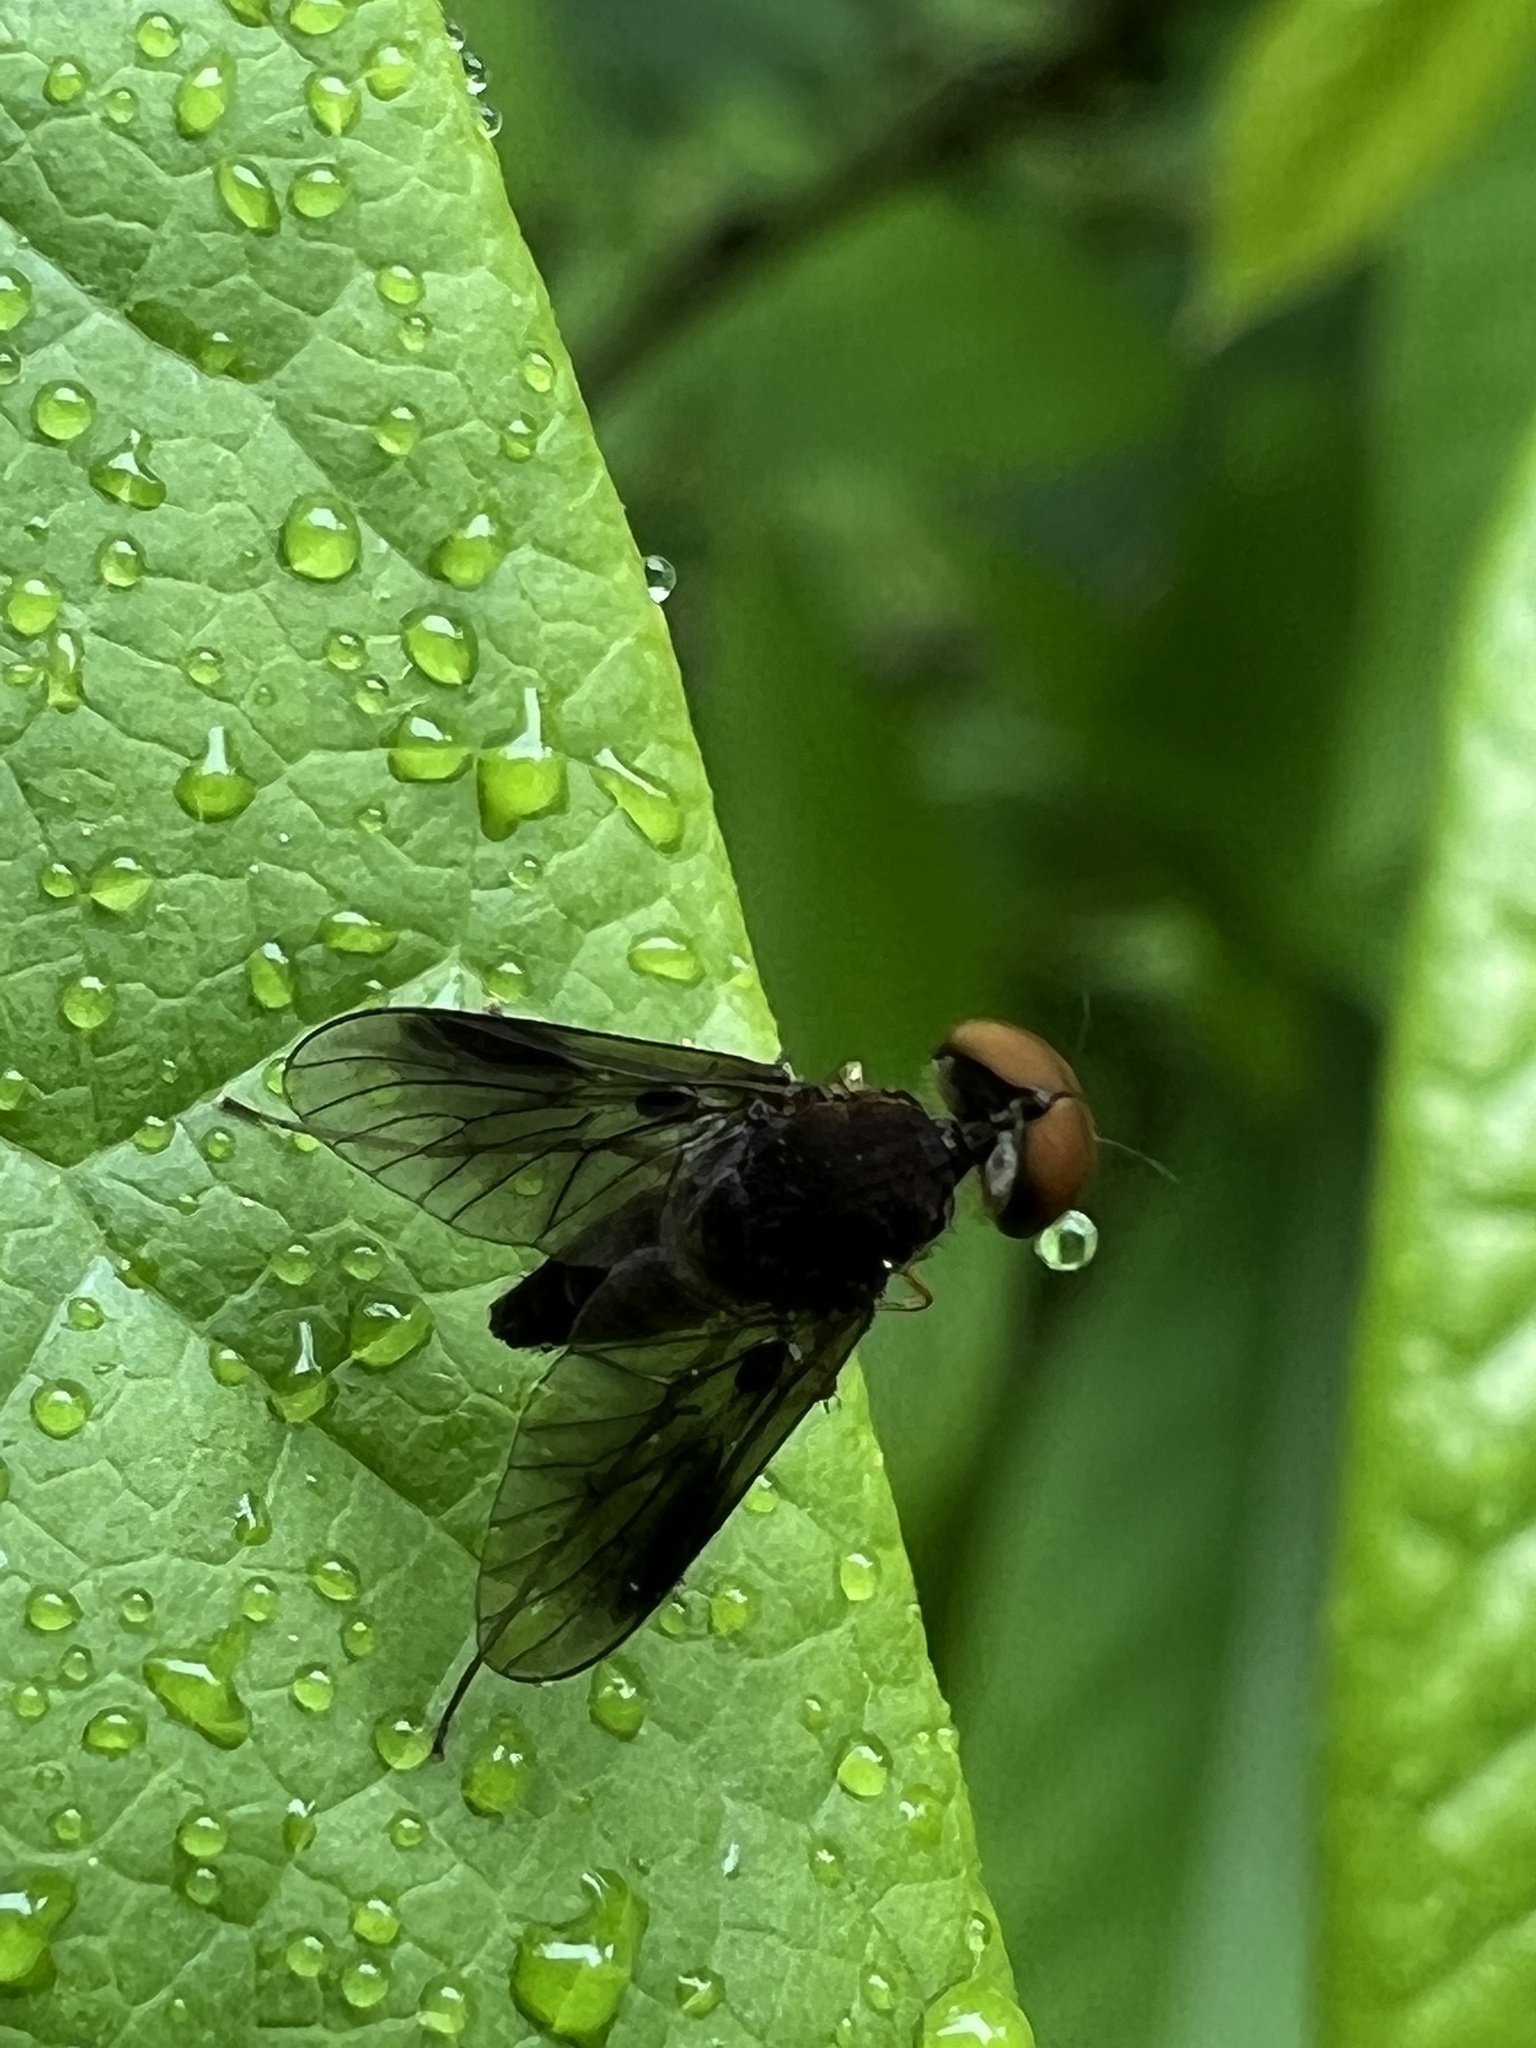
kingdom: Animalia
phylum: Arthropoda
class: Insecta
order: Diptera
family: Rhagionidae
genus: Chrysopilus
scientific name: Chrysopilus quadratus
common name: Quadrate snipe fly
